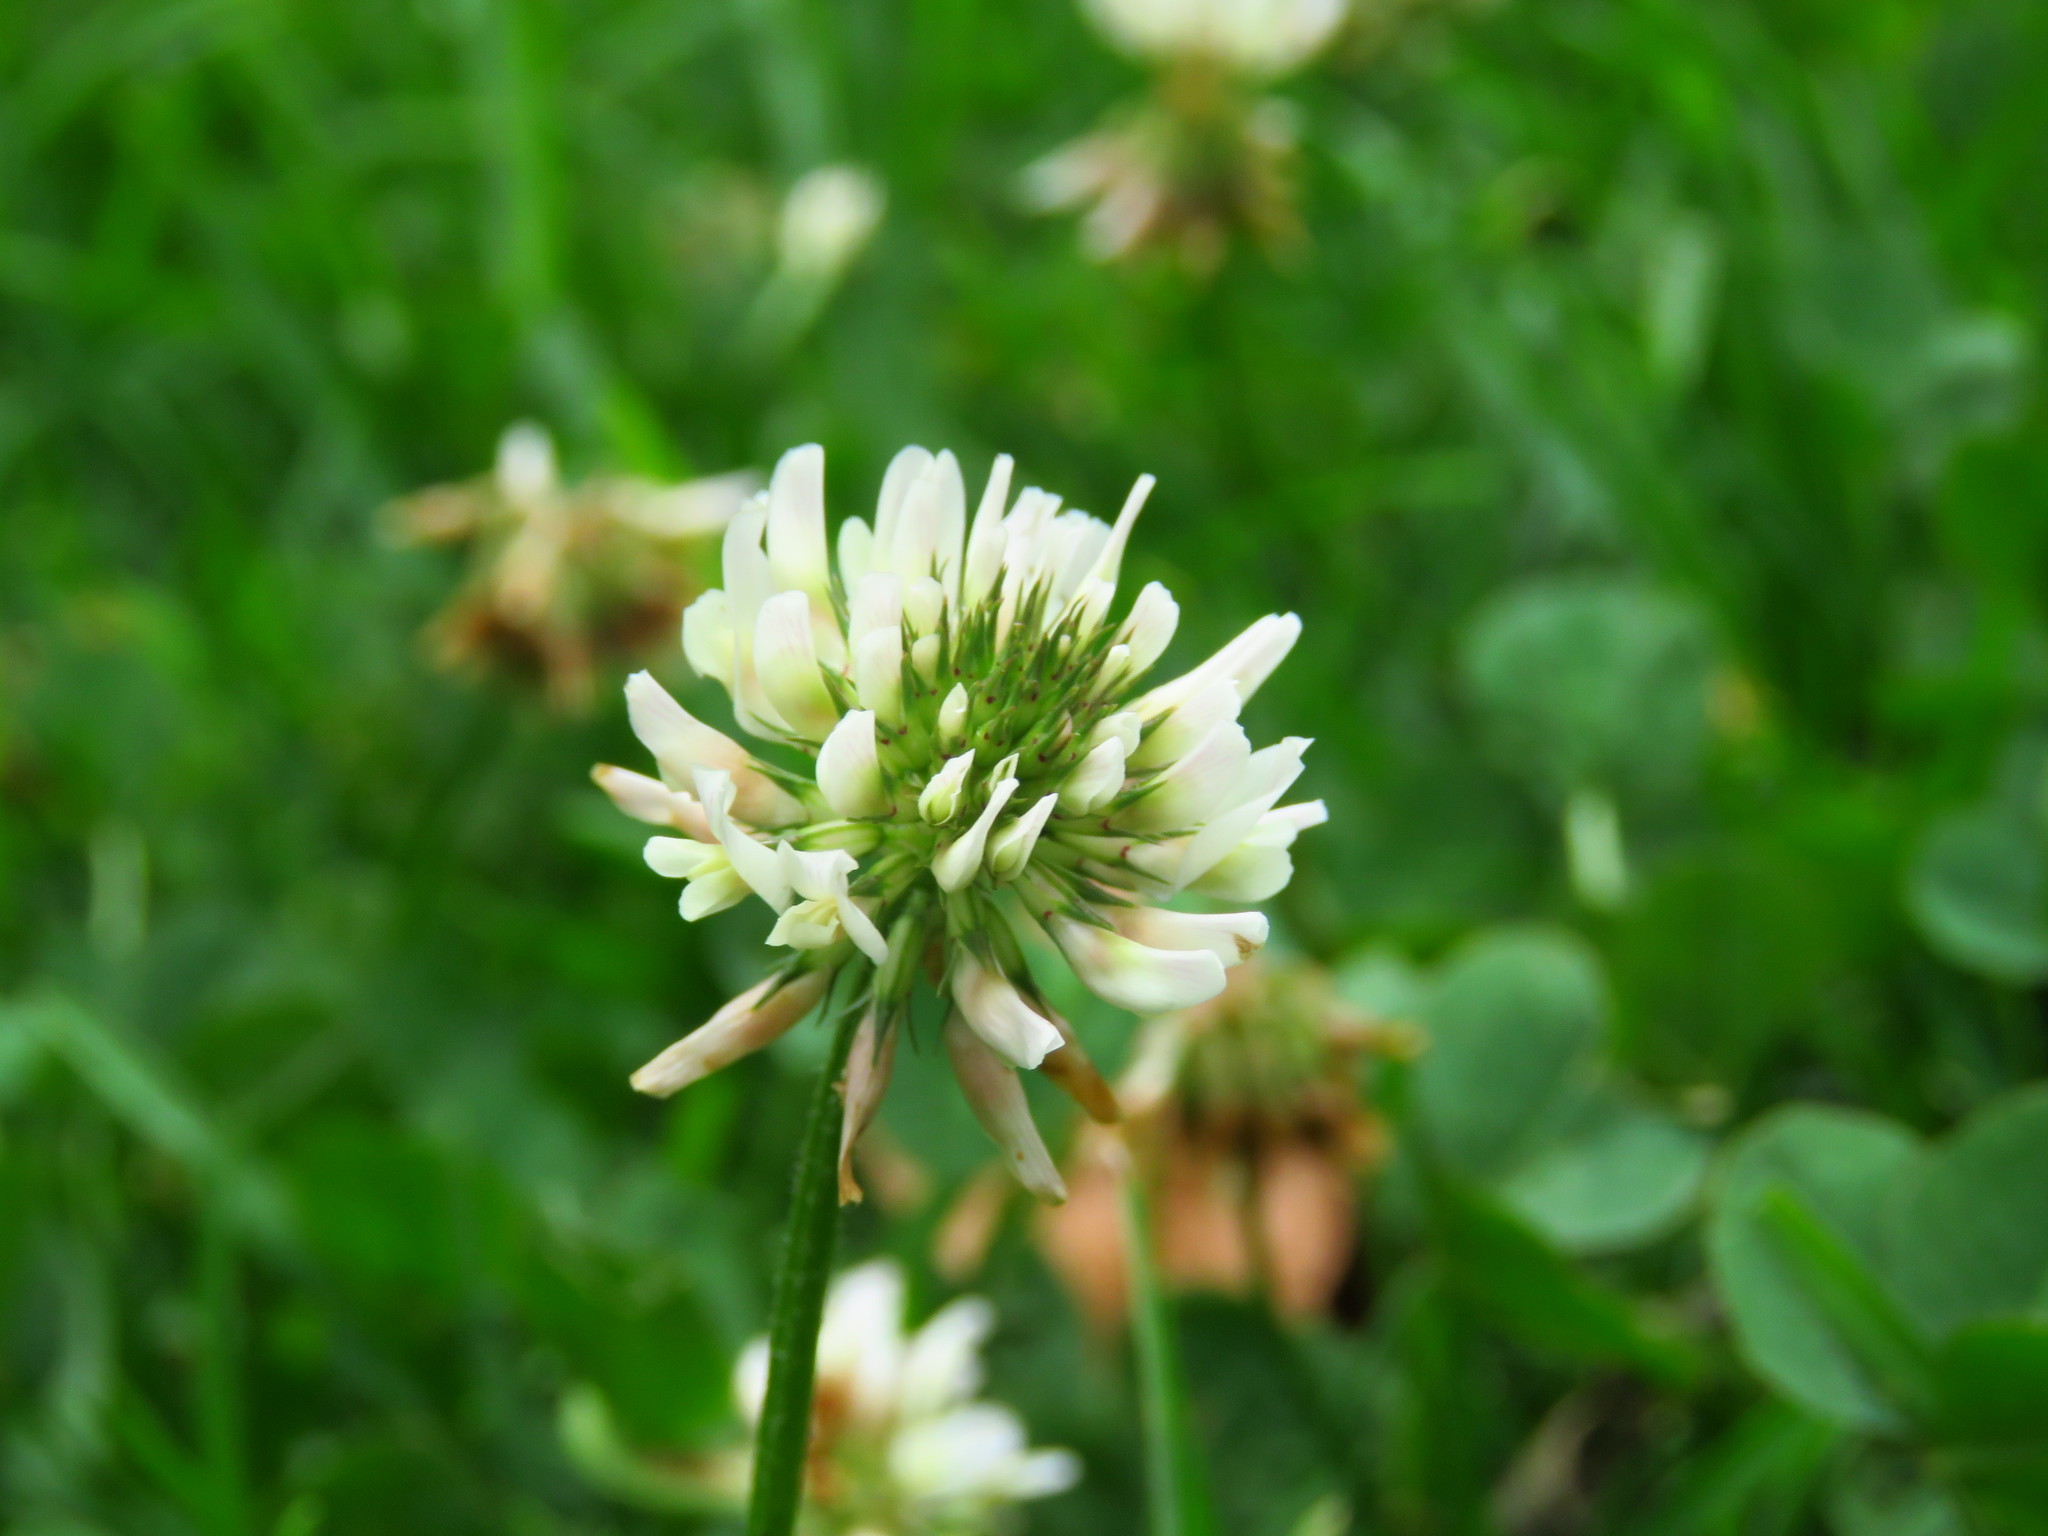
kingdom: Plantae
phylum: Tracheophyta
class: Magnoliopsida
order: Fabales
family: Fabaceae
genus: Trifolium
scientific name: Trifolium repens
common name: White clover
